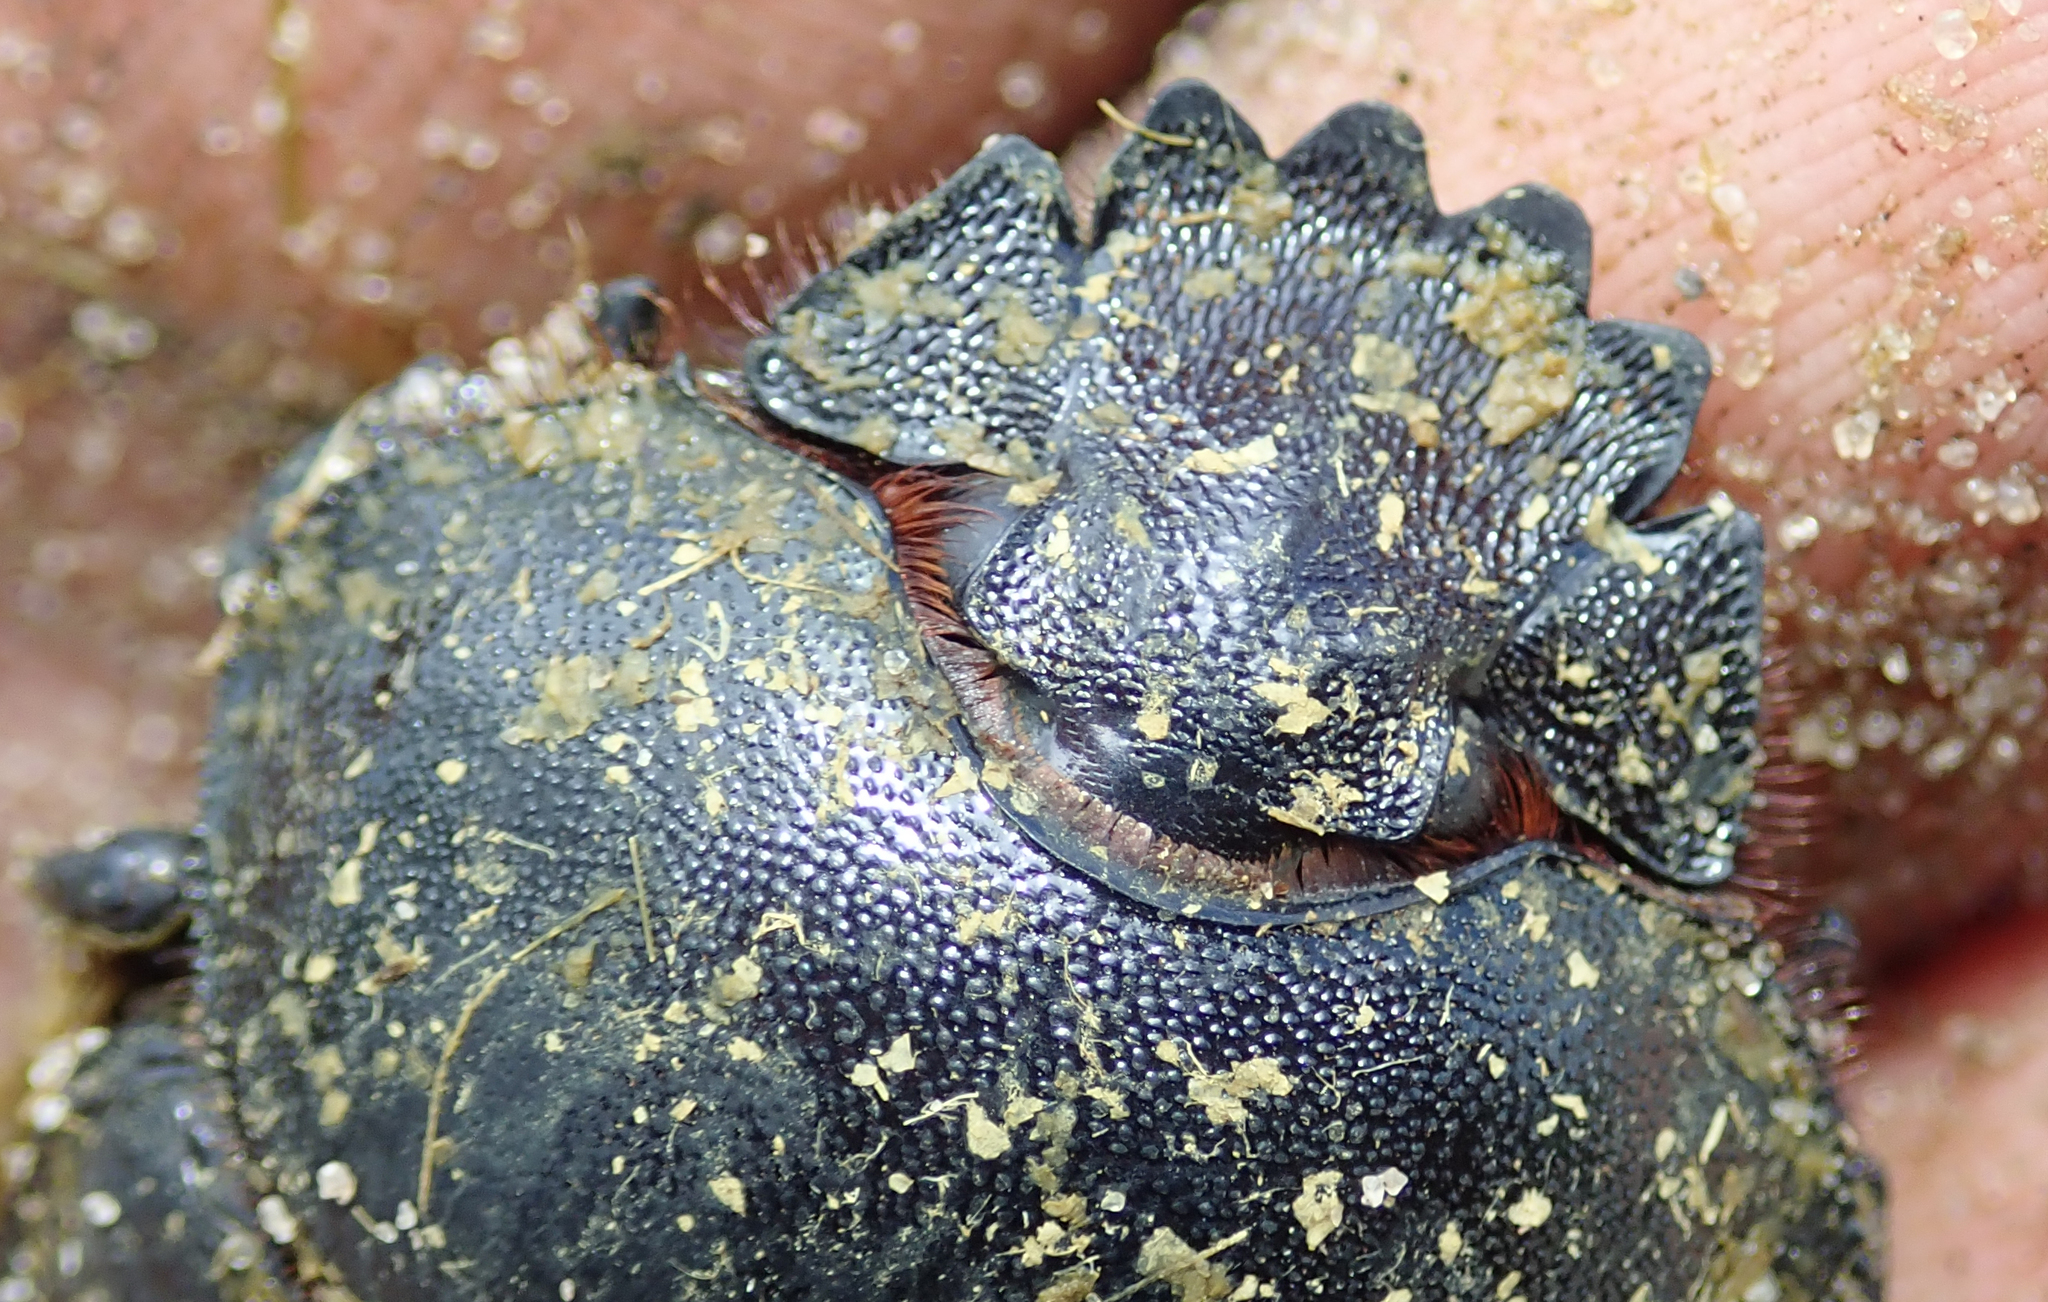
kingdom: Animalia
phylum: Arthropoda
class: Insecta
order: Coleoptera
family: Scarabaeidae
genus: Kheper
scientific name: Kheper prodigiosus
